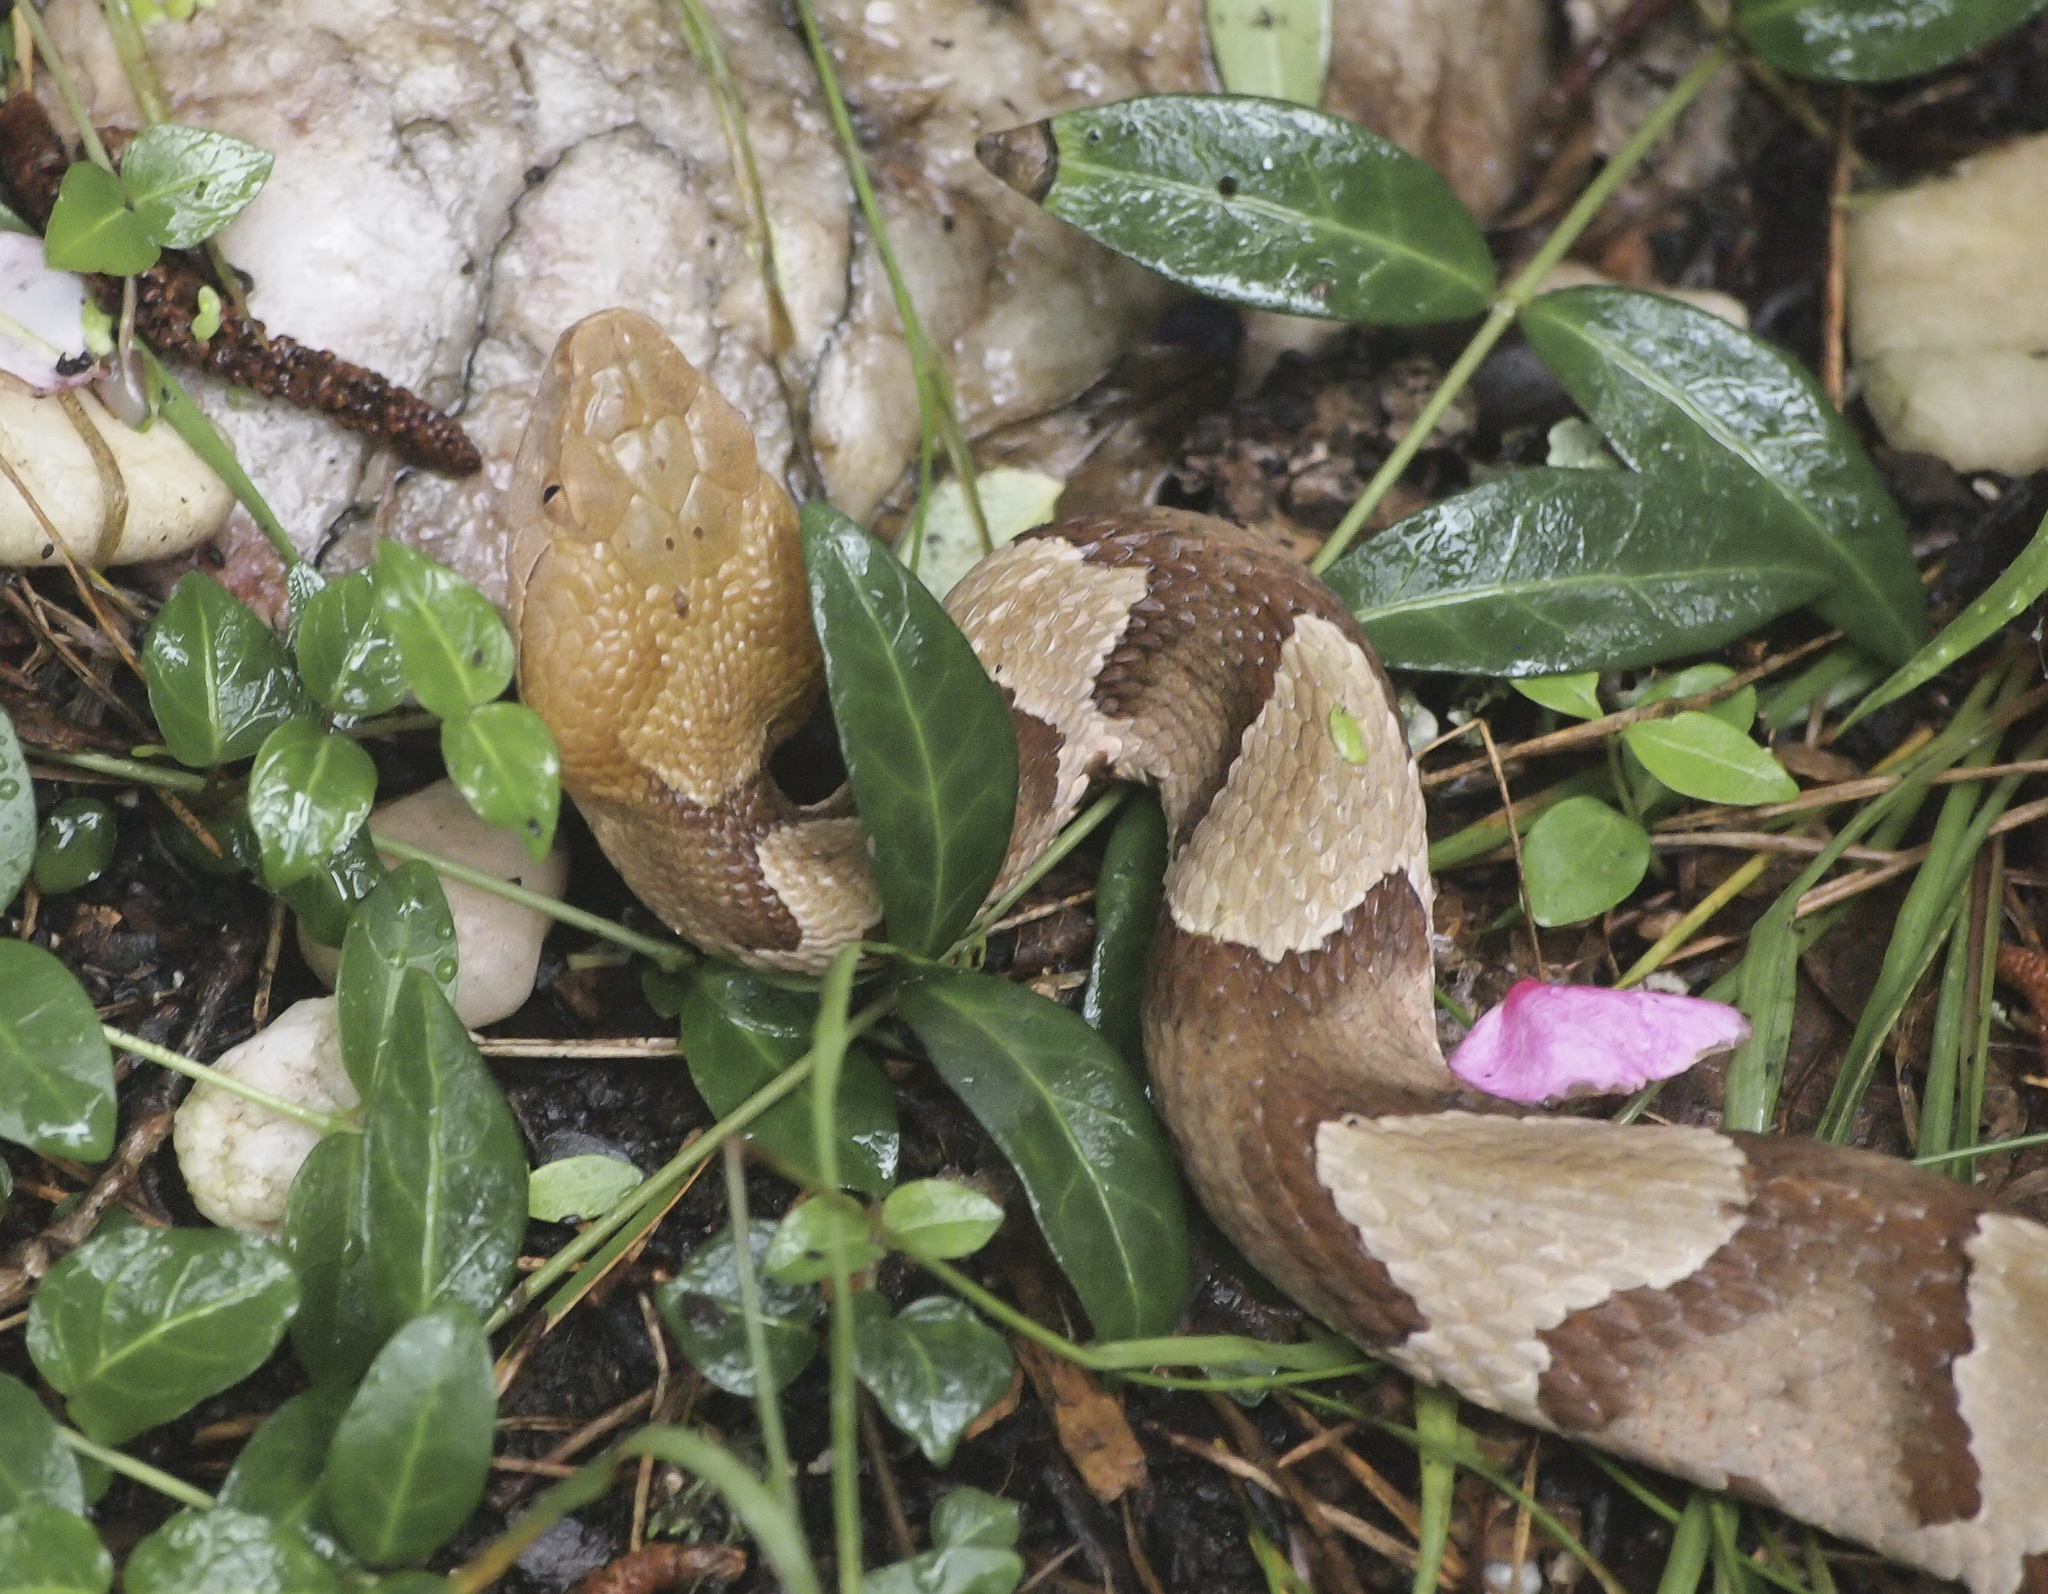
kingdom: Animalia
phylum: Chordata
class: Squamata
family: Viperidae
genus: Agkistrodon
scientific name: Agkistrodon contortrix
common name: Northern copperhead
